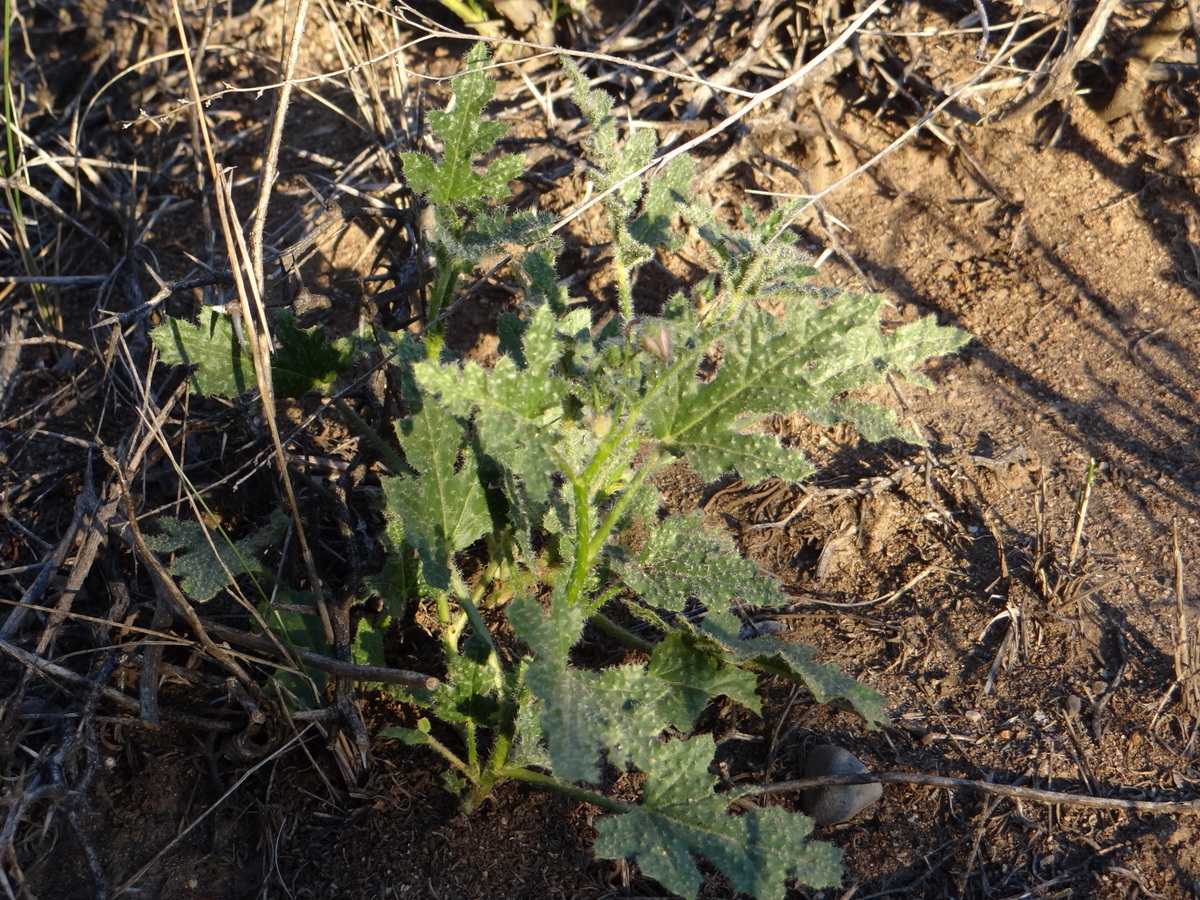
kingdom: Plantae
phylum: Tracheophyta
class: Magnoliopsida
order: Malvales
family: Malvaceae
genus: Lecanophora
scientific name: Lecanophora heterophylla
